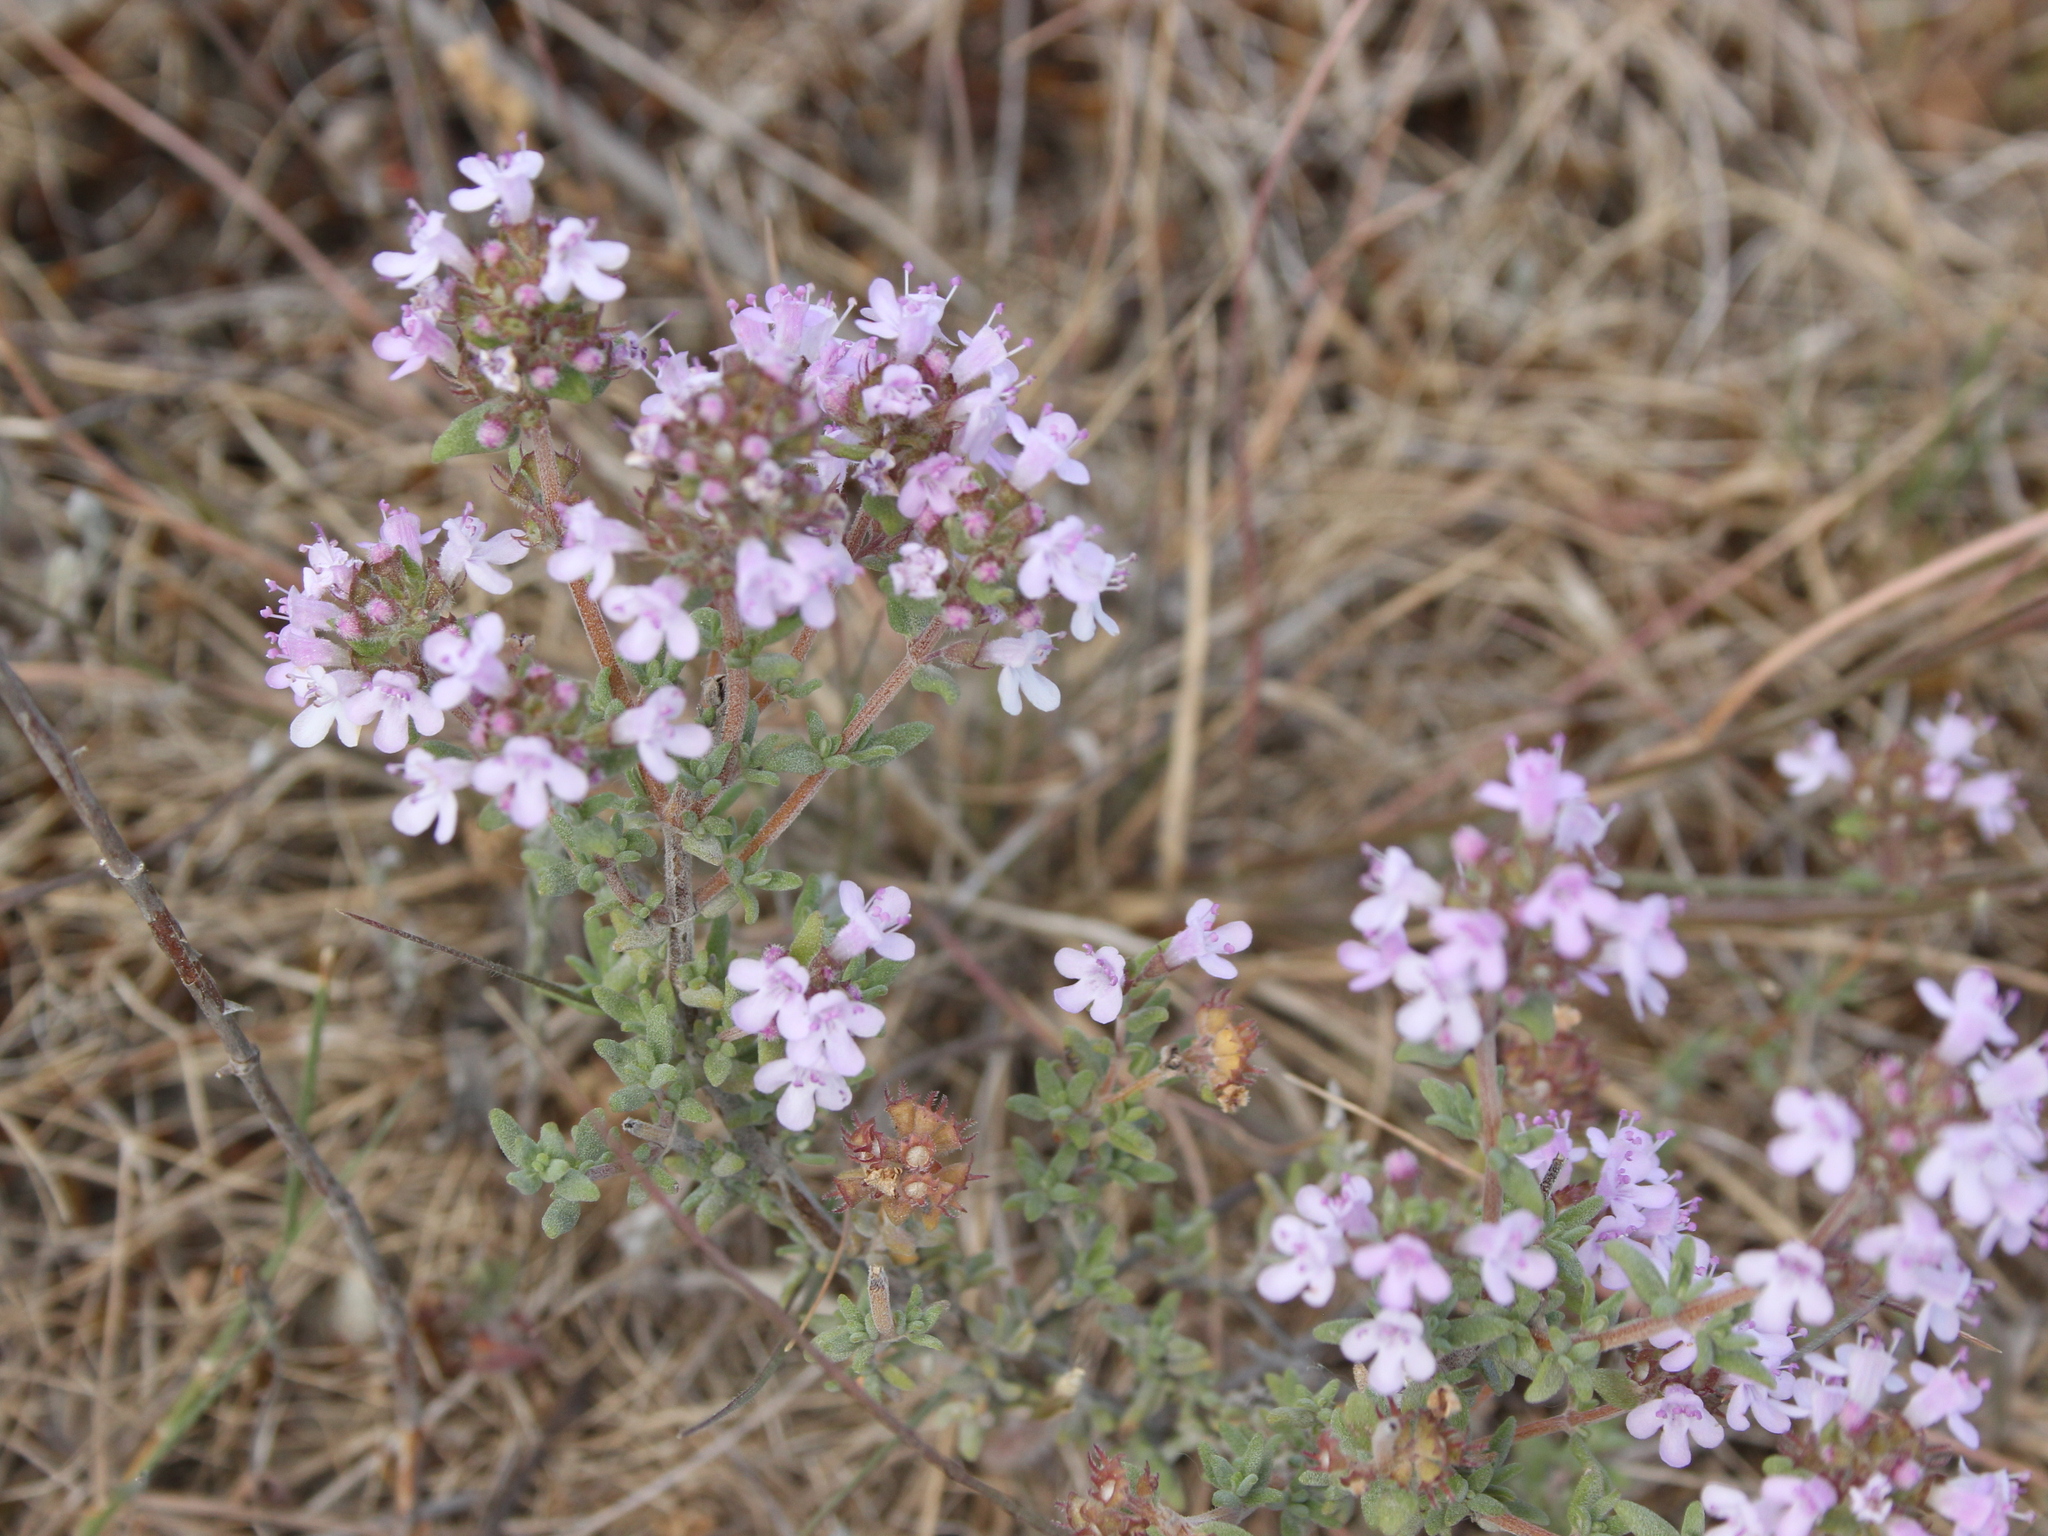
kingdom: Plantae
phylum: Tracheophyta
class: Magnoliopsida
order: Lamiales
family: Lamiaceae
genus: Thymus
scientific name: Thymus vulgaris
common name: Garden thyme
